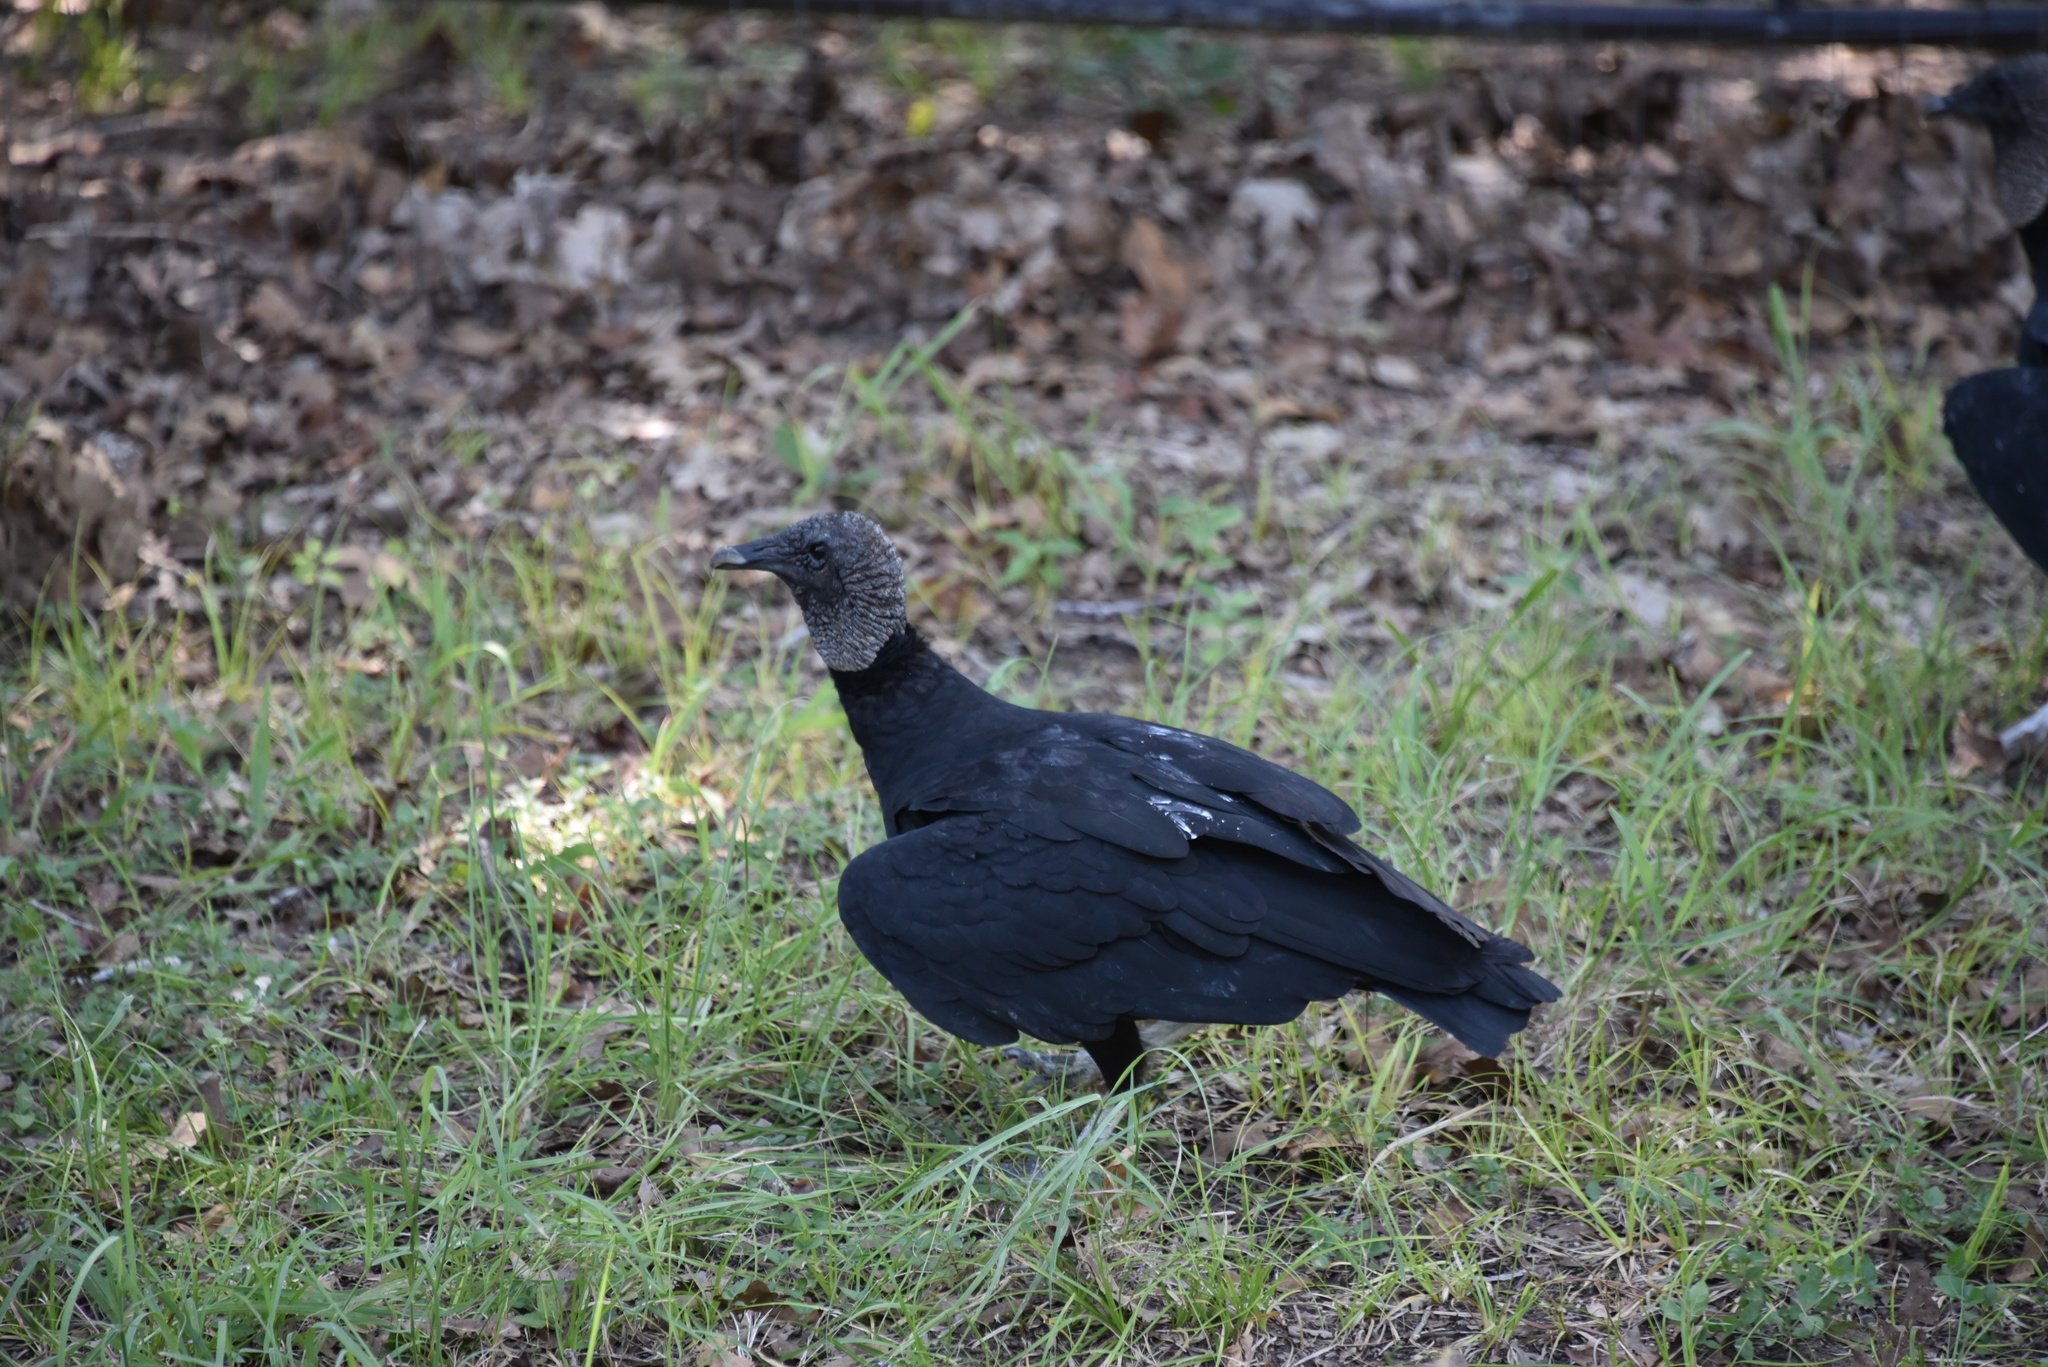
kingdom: Animalia
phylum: Chordata
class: Aves
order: Accipitriformes
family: Cathartidae
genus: Coragyps
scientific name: Coragyps atratus
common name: Black vulture
